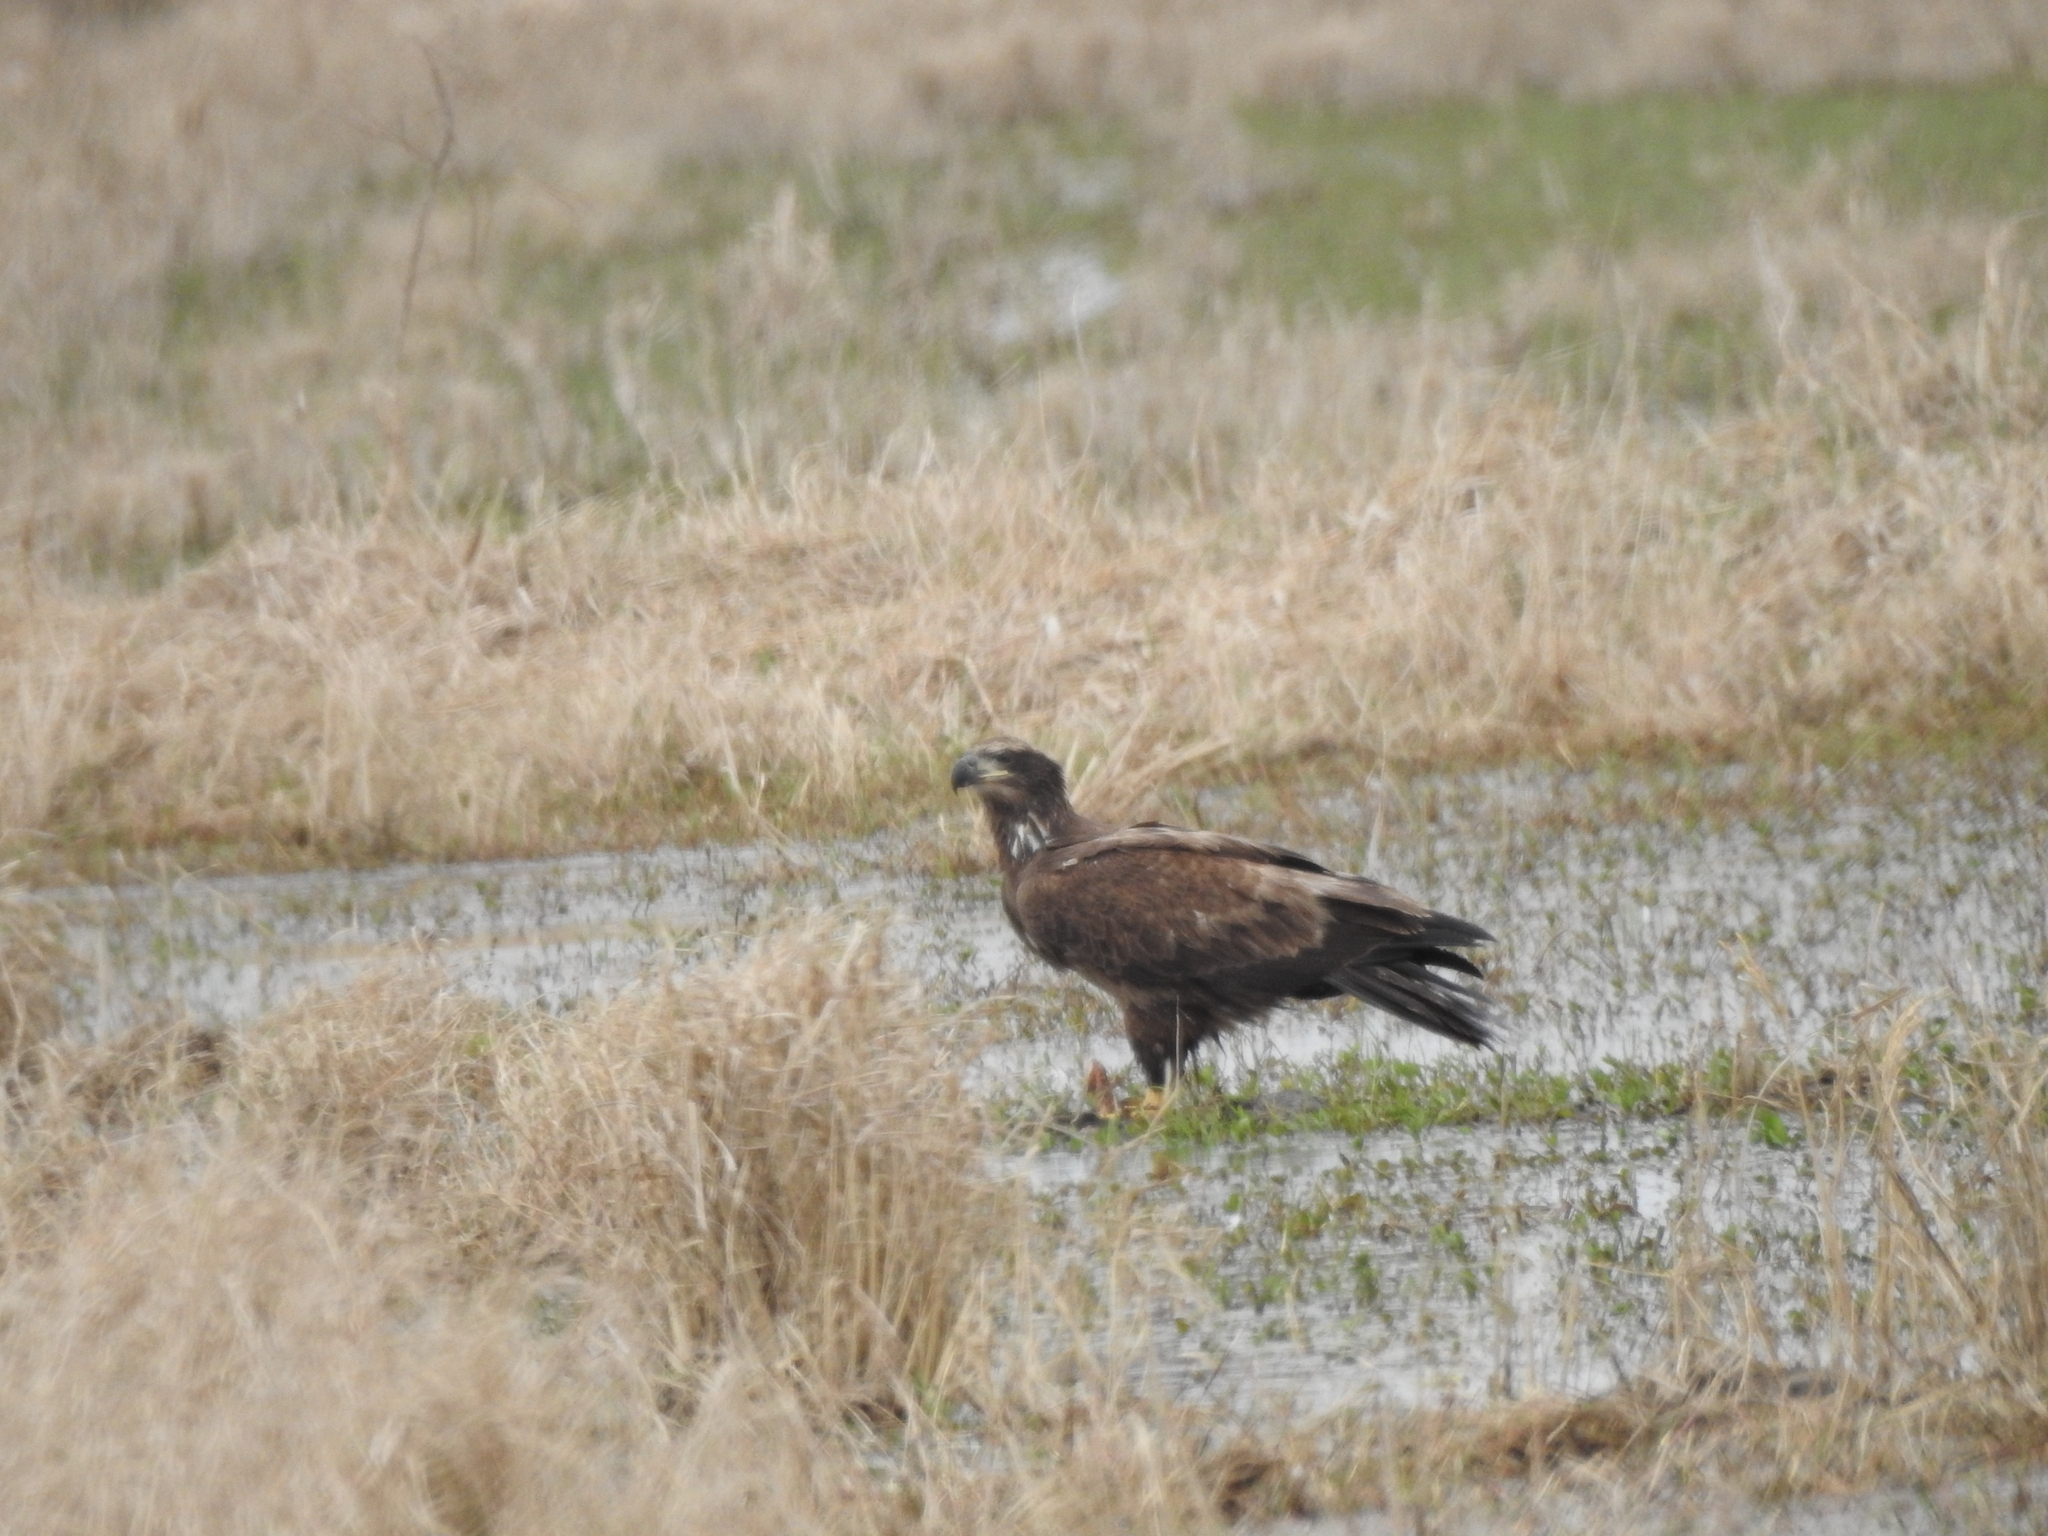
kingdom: Animalia
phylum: Chordata
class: Aves
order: Accipitriformes
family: Accipitridae
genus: Haliaeetus
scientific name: Haliaeetus leucocephalus
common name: Bald eagle
